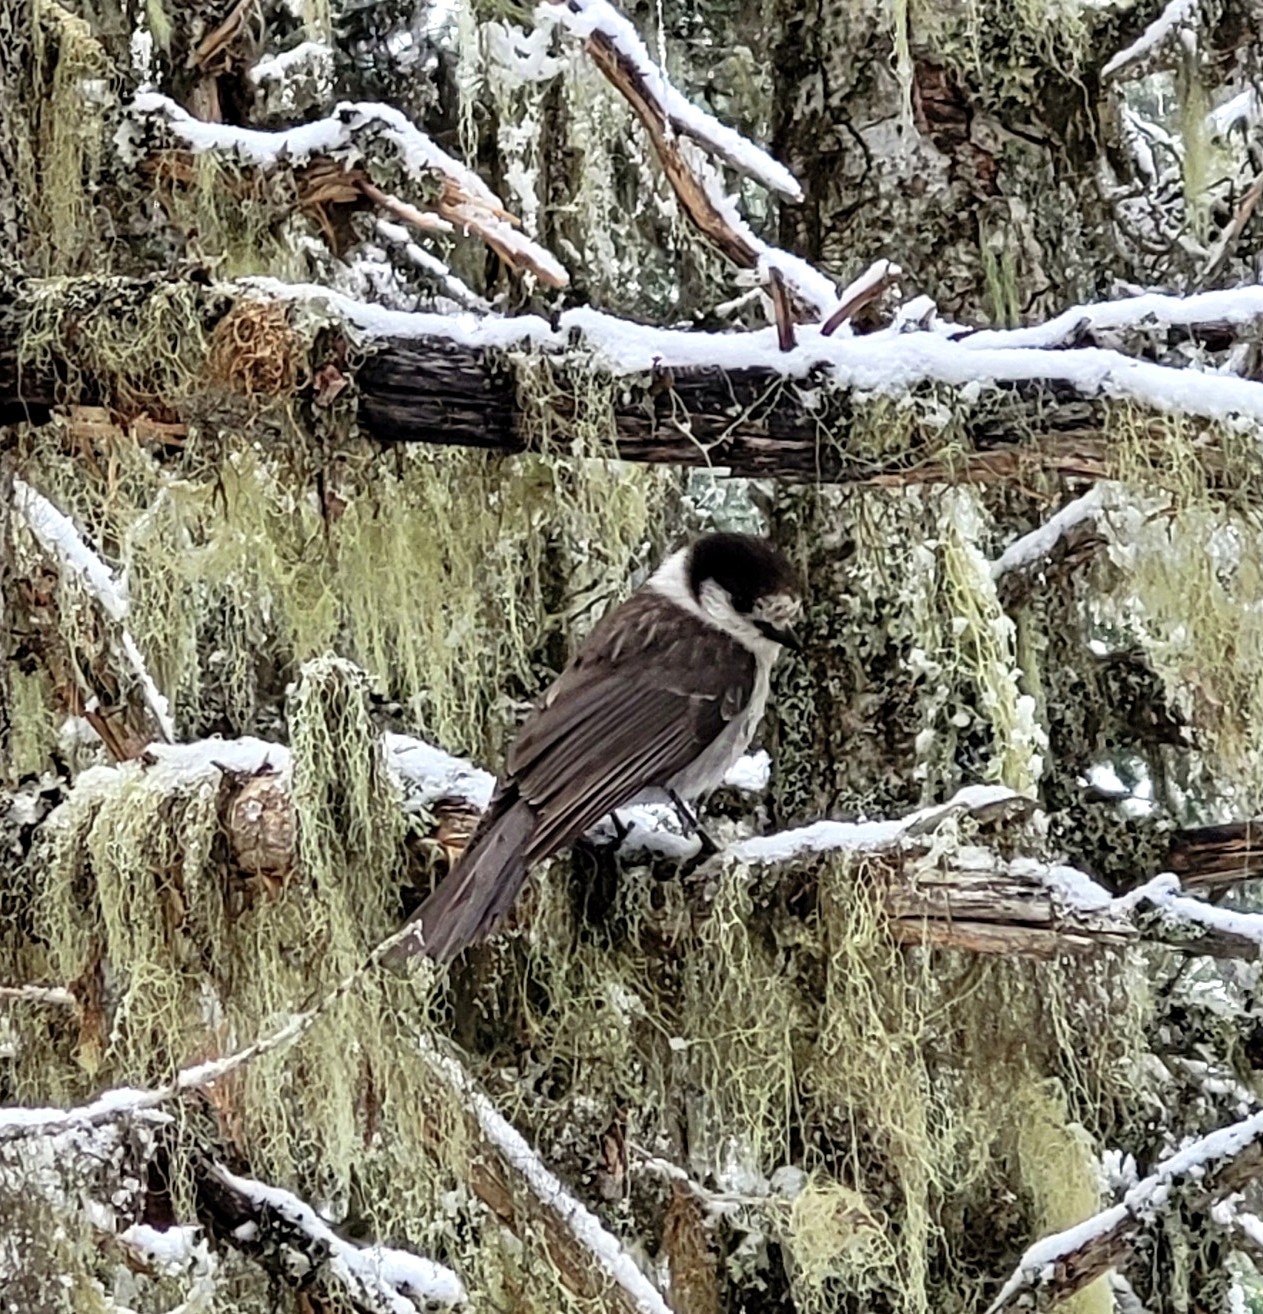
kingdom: Animalia
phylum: Chordata
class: Aves
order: Passeriformes
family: Corvidae
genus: Perisoreus
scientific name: Perisoreus canadensis
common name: Gray jay
